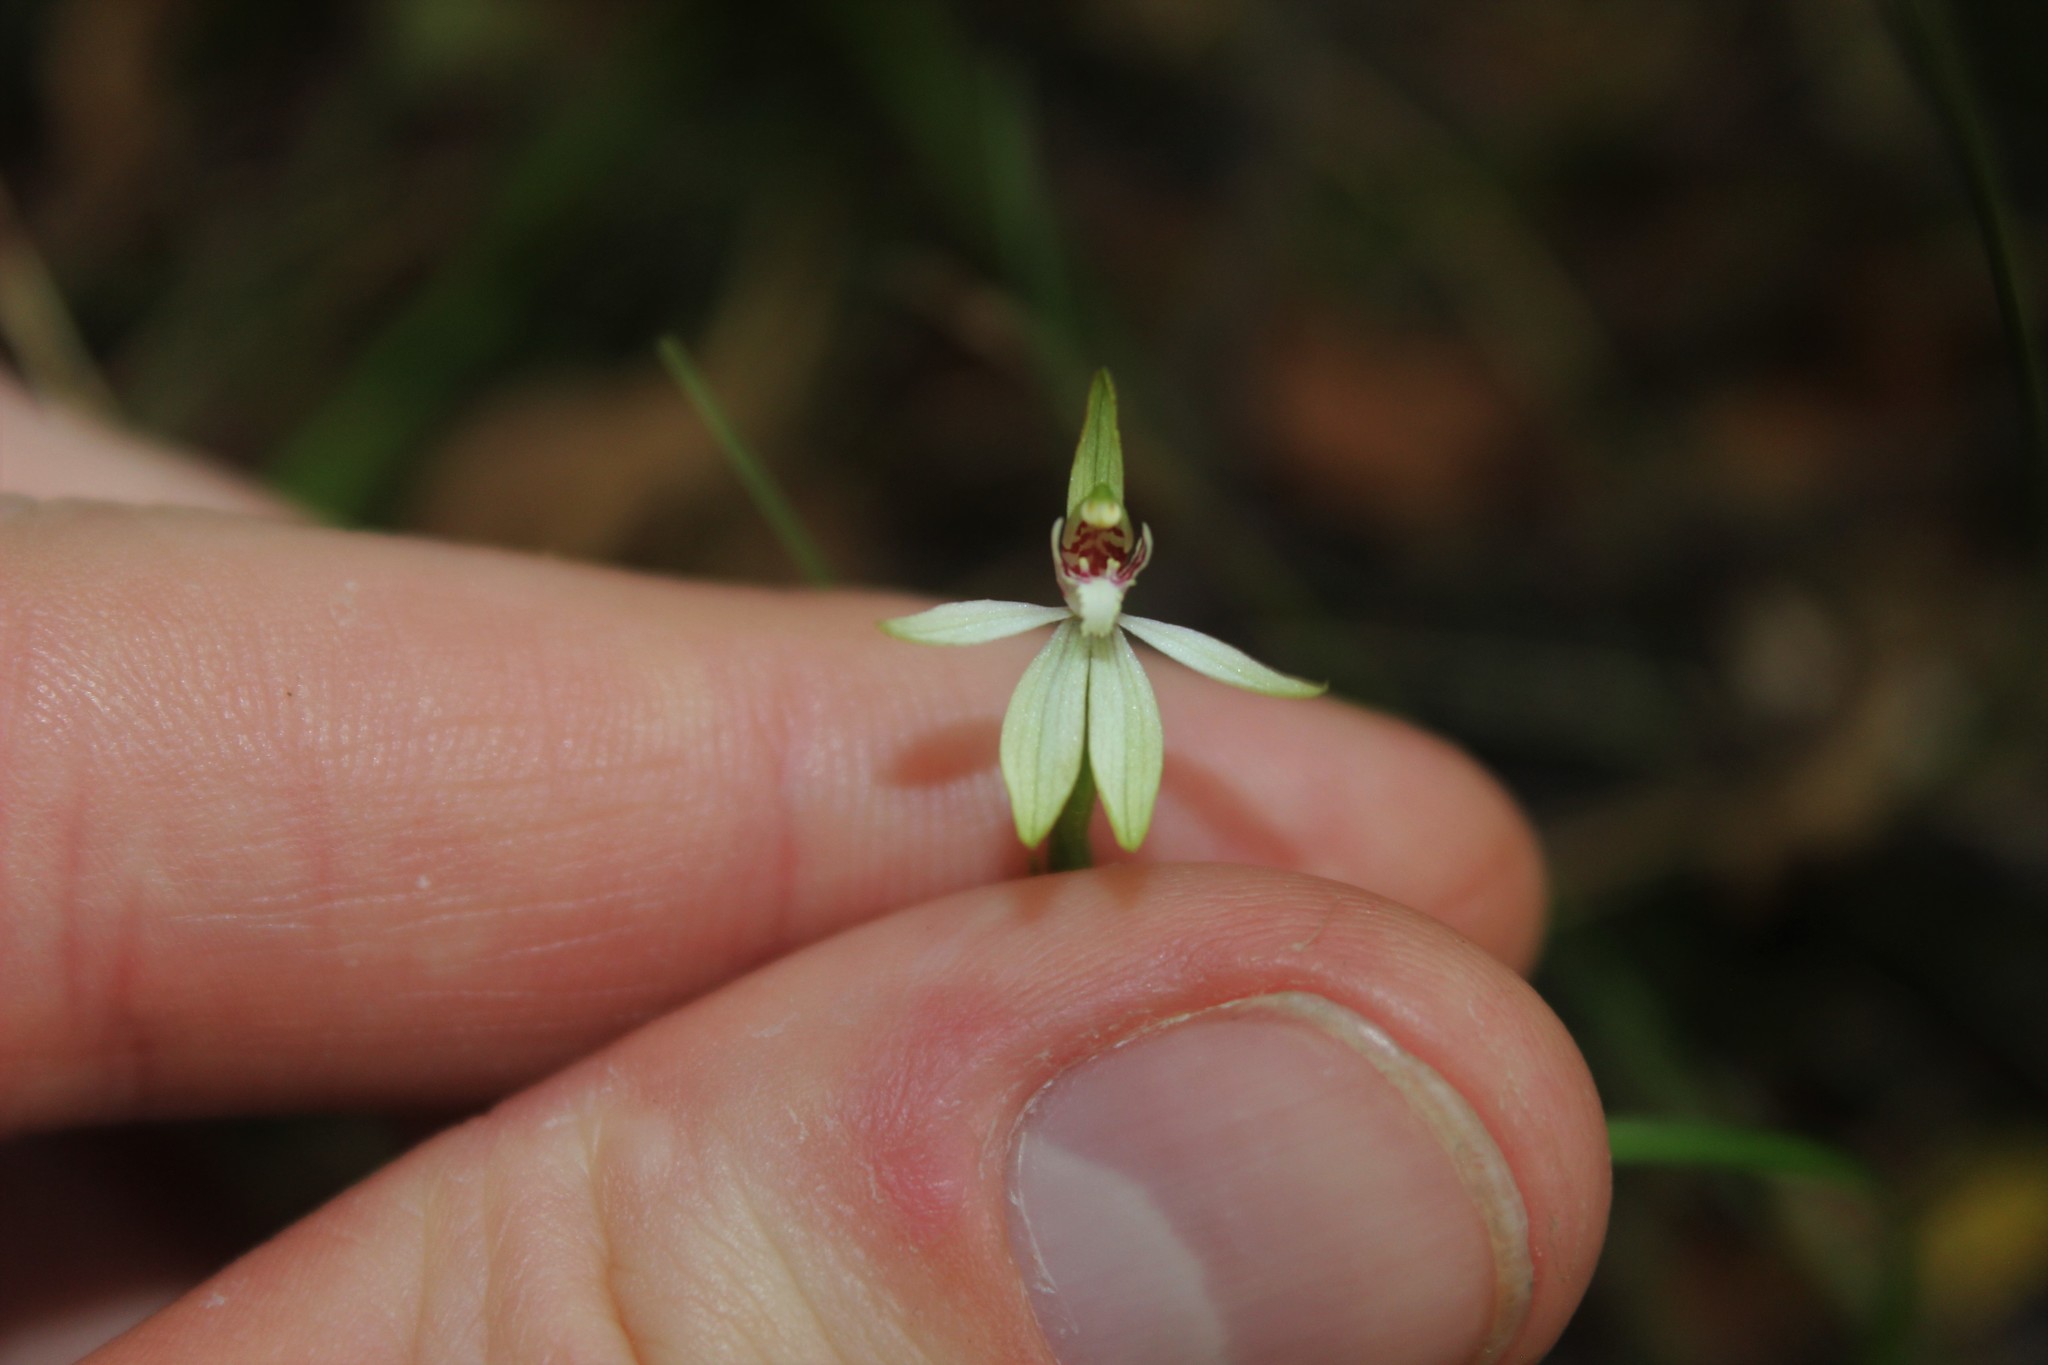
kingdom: Plantae
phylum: Tracheophyta
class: Liliopsida
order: Asparagales
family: Orchidaceae
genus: Caladenia
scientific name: Caladenia chlorostyla
